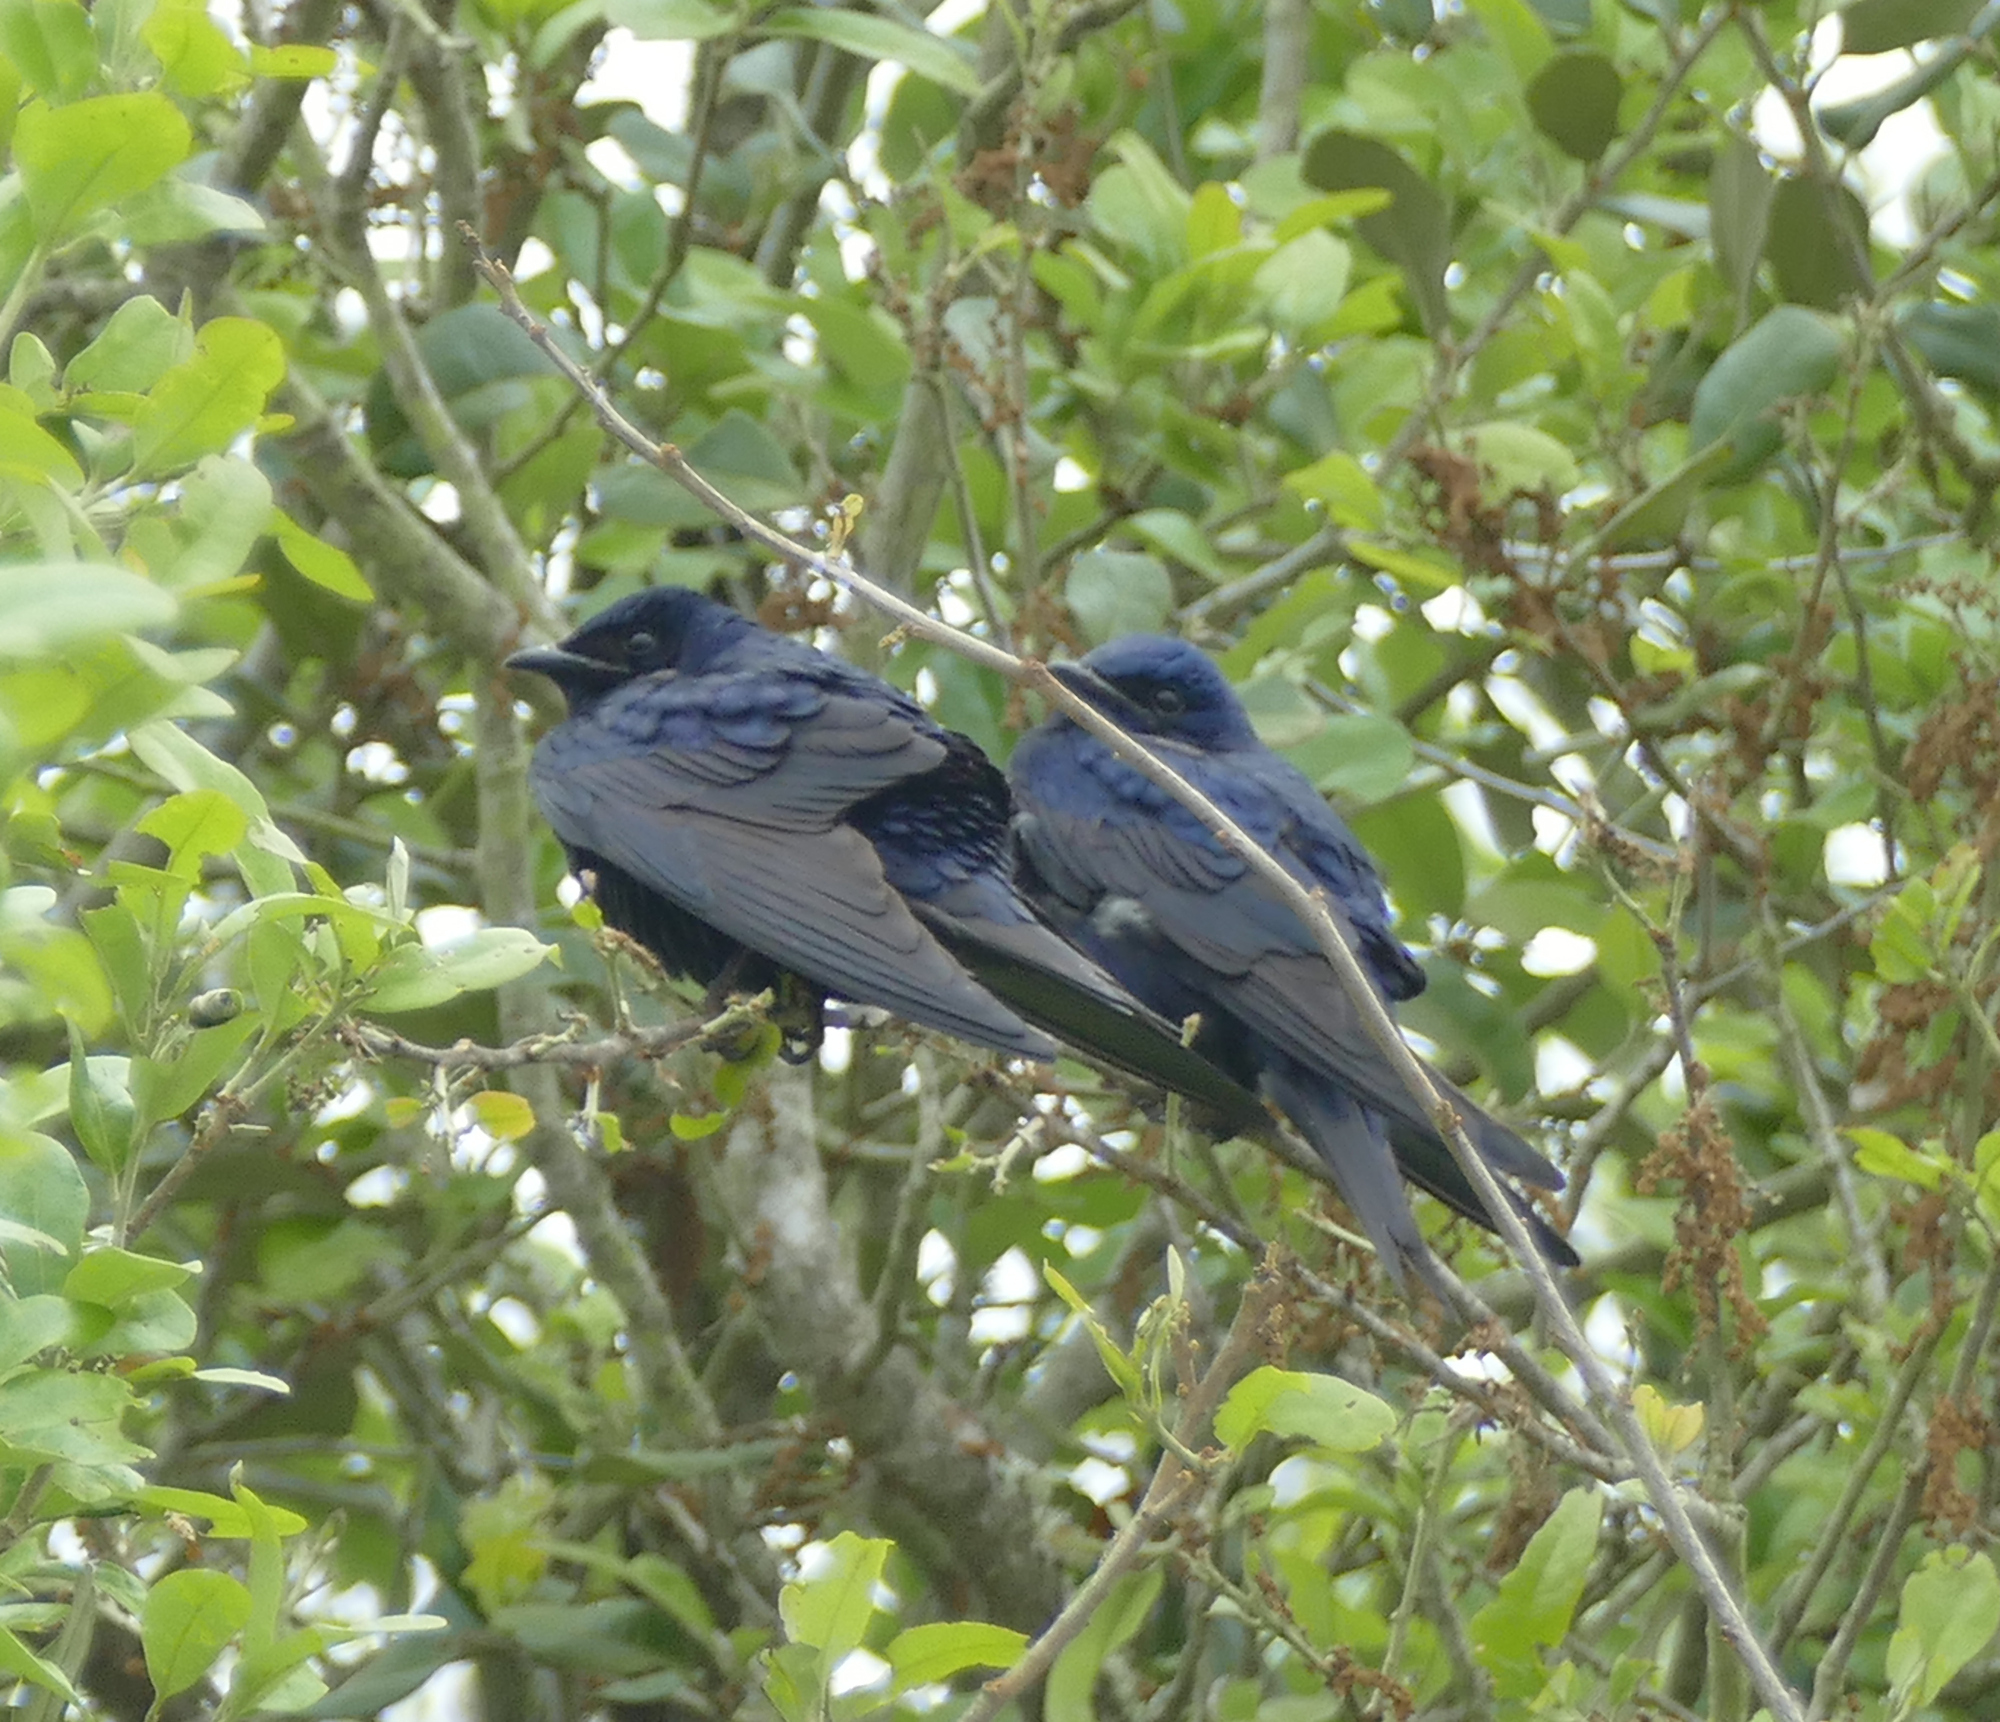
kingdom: Animalia
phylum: Chordata
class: Aves
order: Passeriformes
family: Hirundinidae
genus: Progne
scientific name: Progne subis
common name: Purple martin
